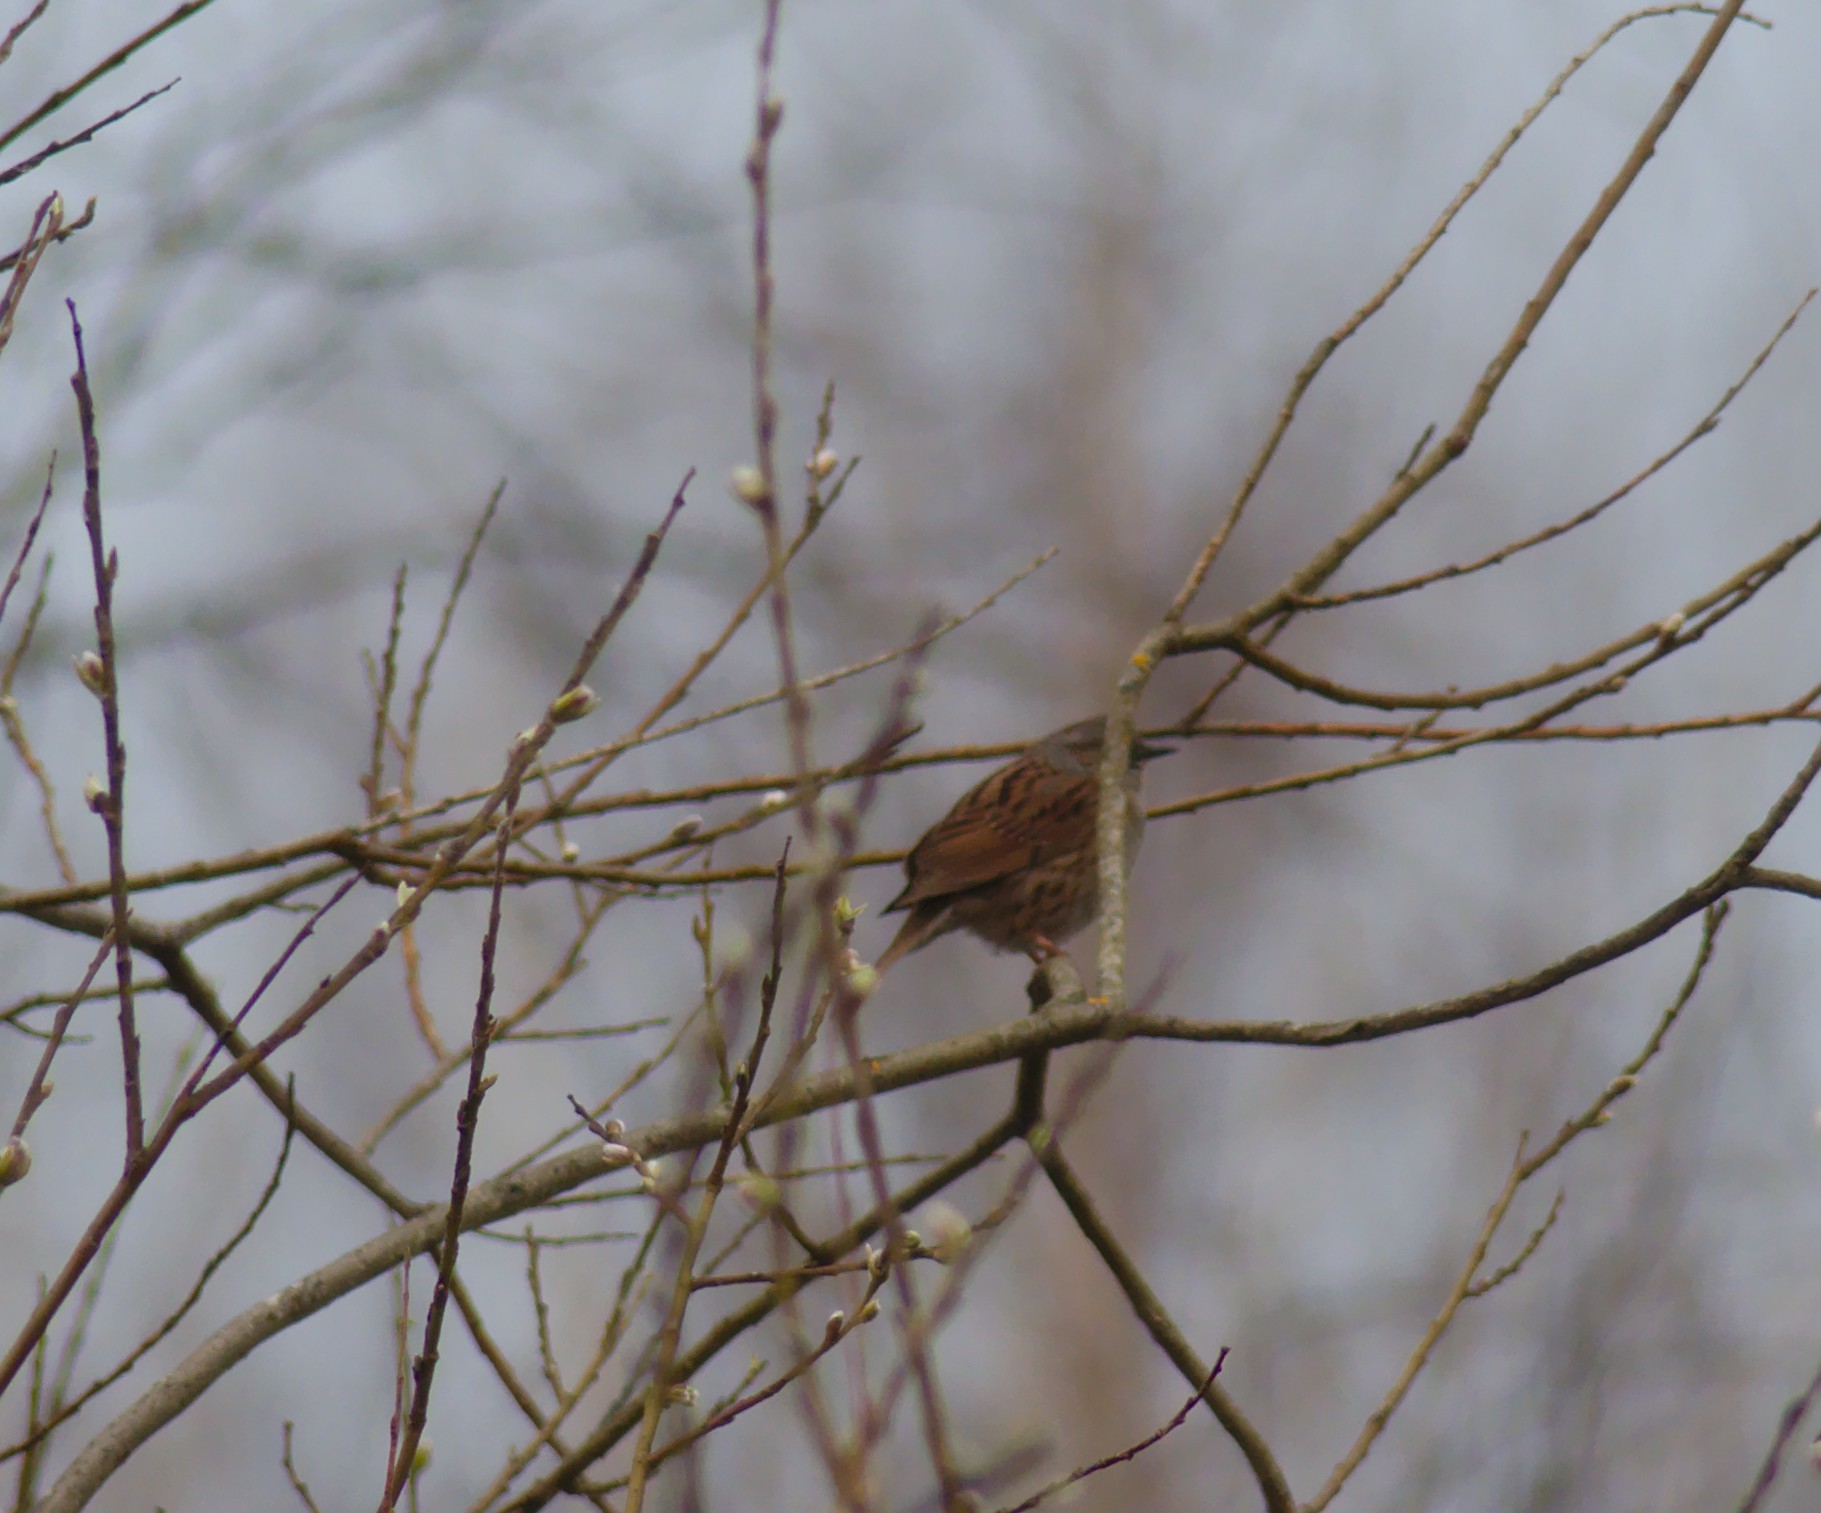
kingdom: Animalia
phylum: Chordata
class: Aves
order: Passeriformes
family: Prunellidae
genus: Prunella
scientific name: Prunella modularis
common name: Dunnock
